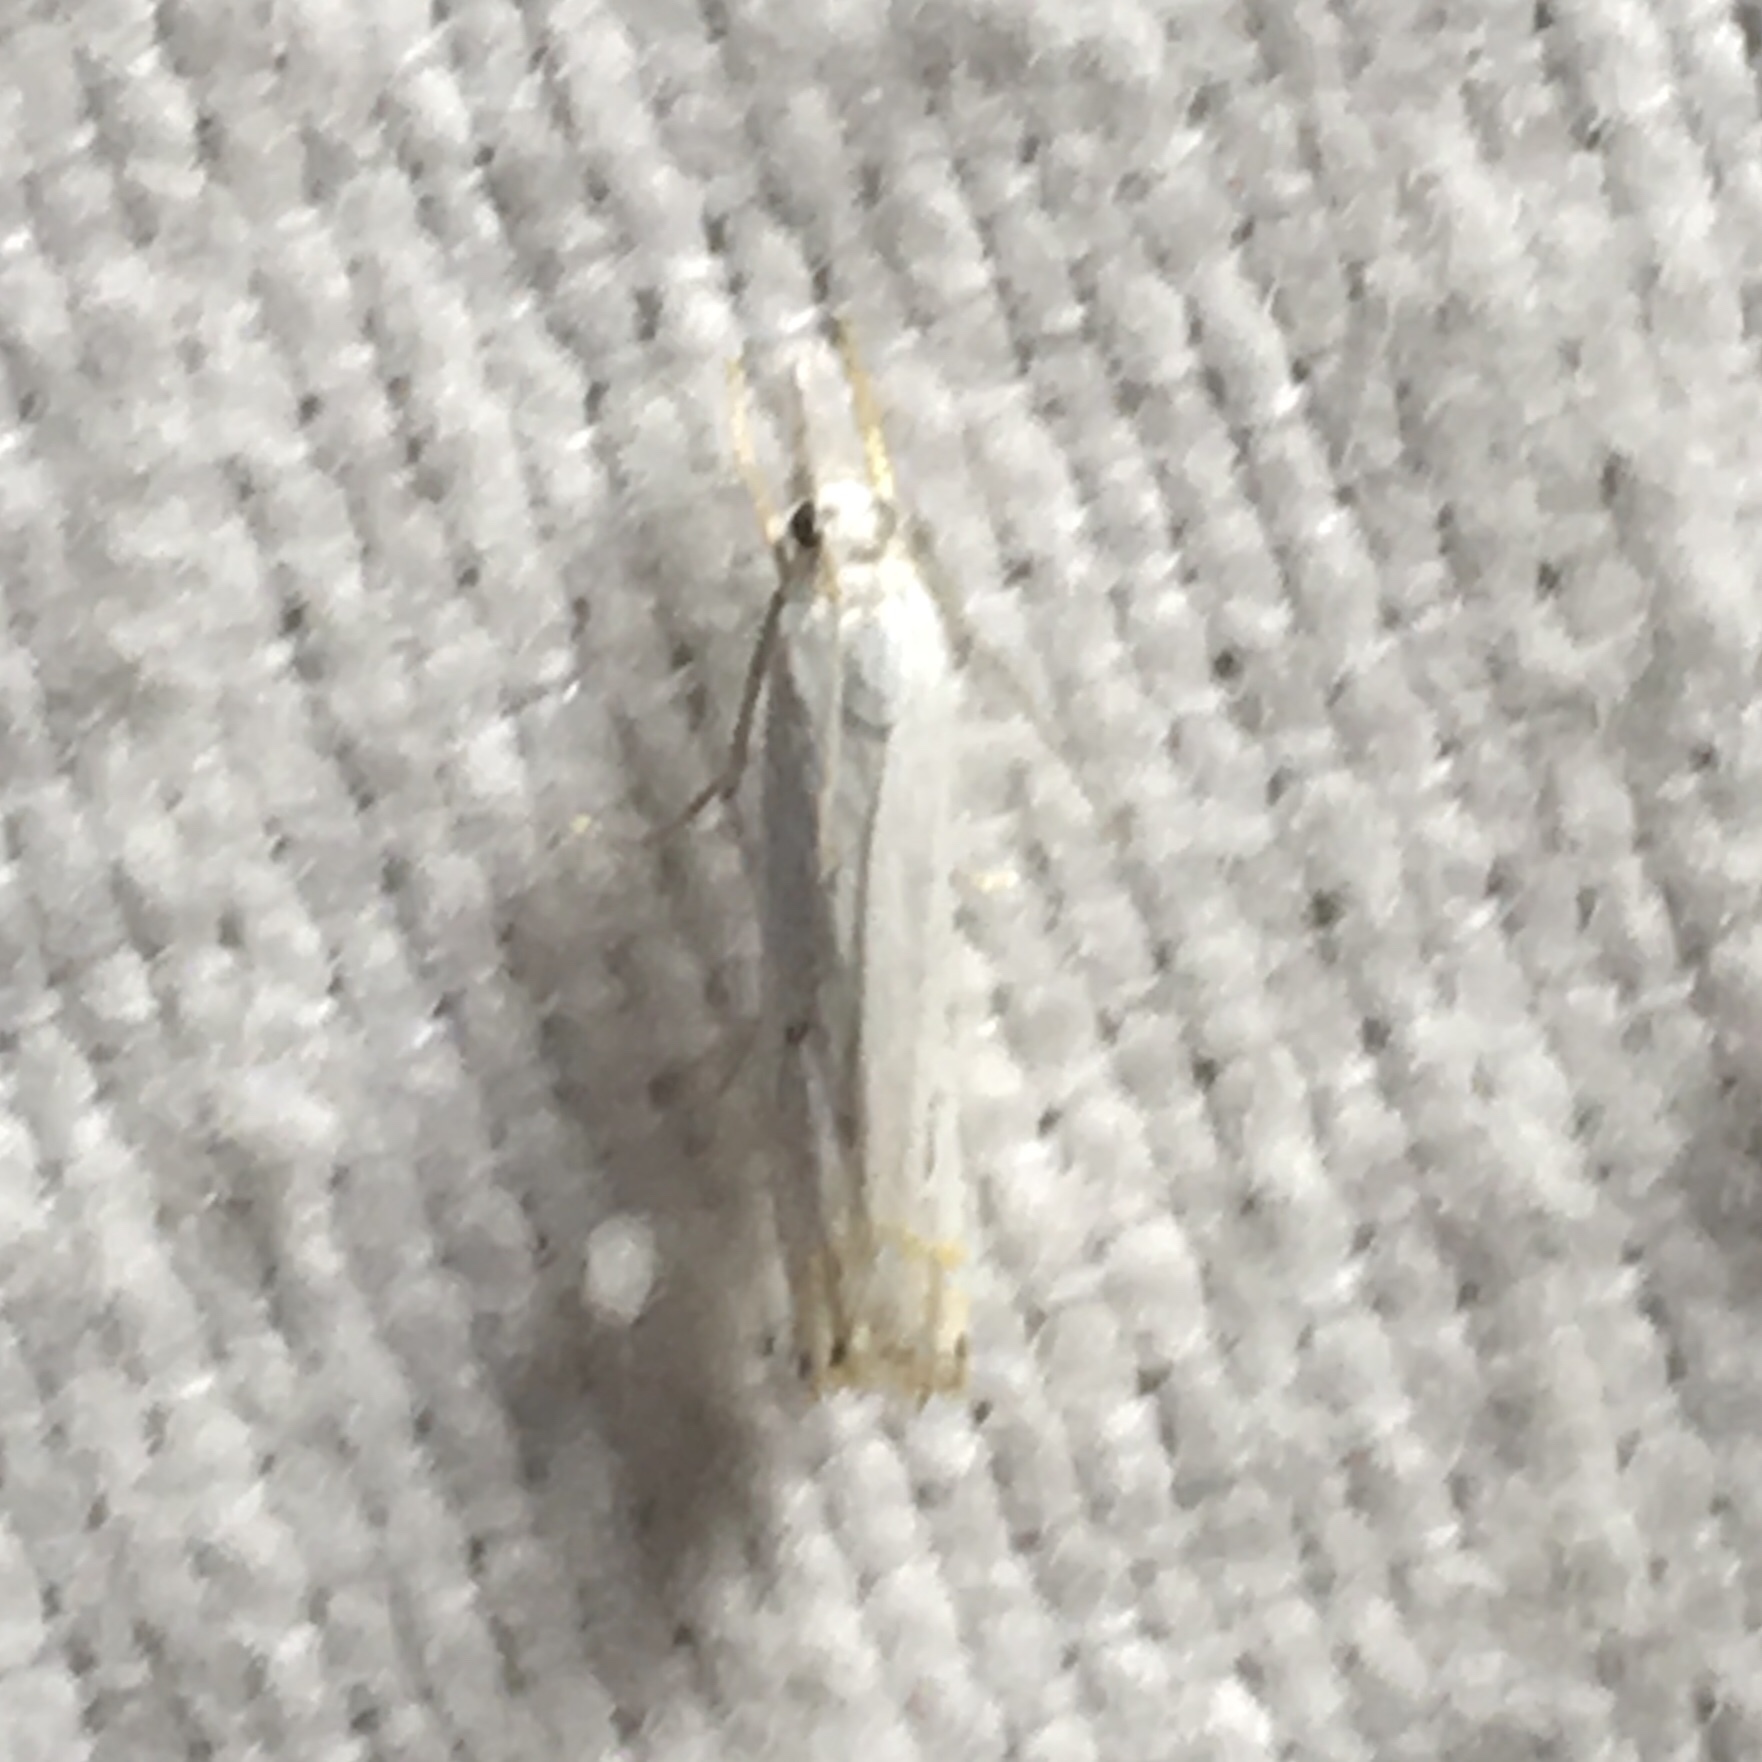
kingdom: Animalia
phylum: Arthropoda
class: Insecta
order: Lepidoptera
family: Crambidae
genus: Crambus
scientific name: Crambus albellus
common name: Small white grass-veneer
